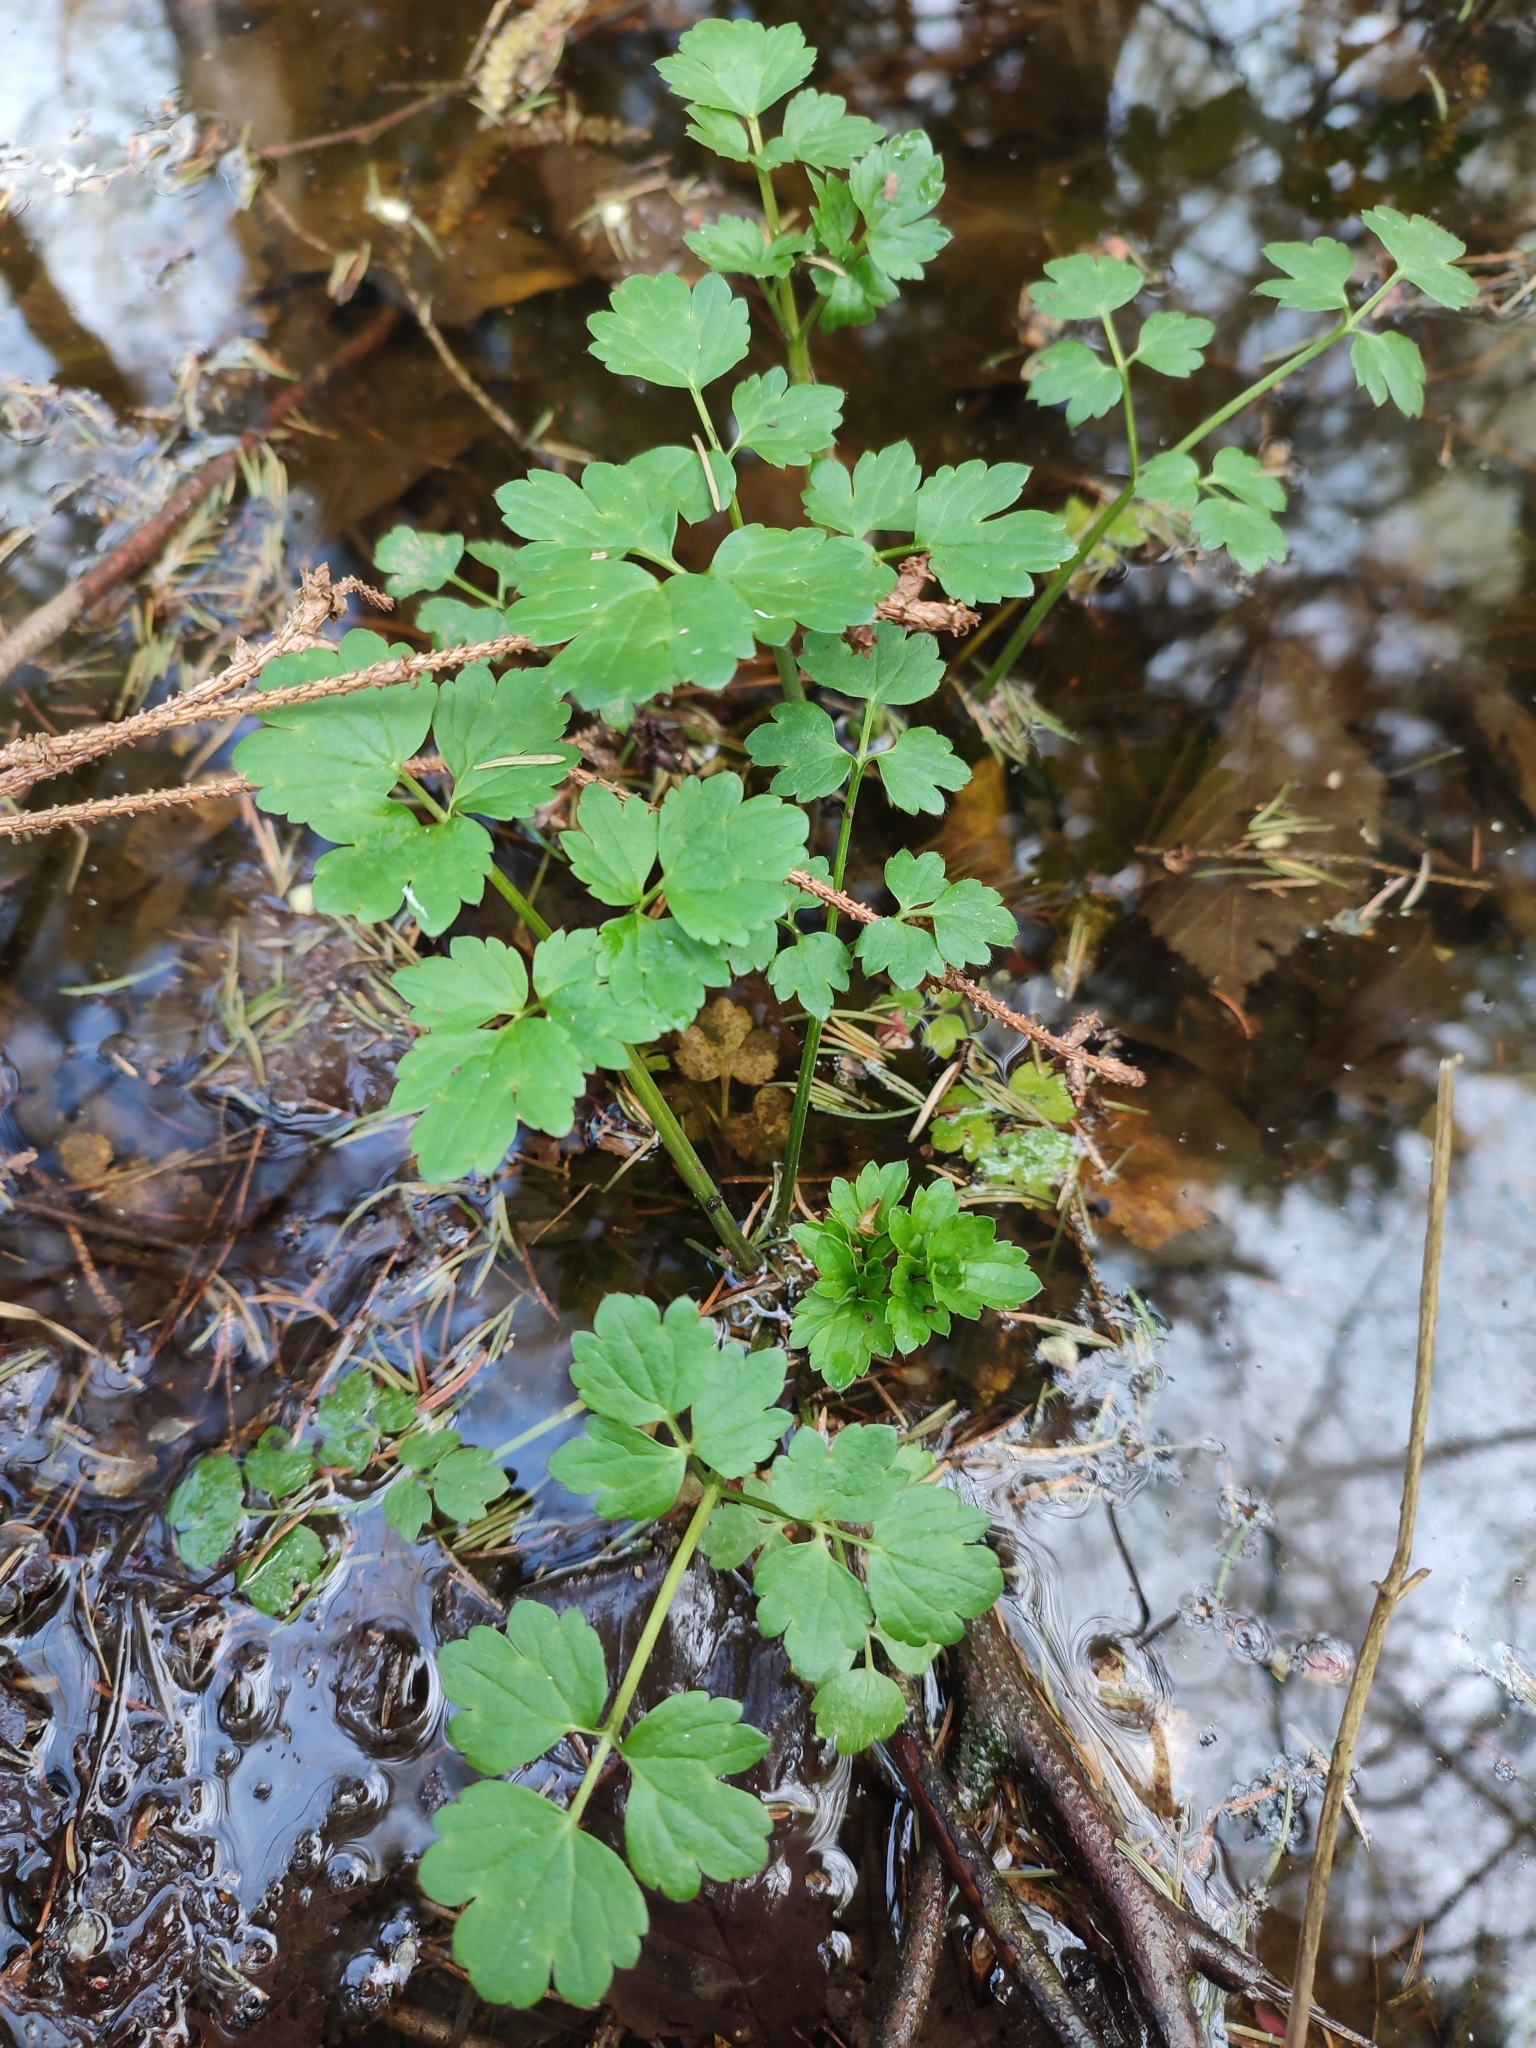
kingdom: Plantae
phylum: Tracheophyta
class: Magnoliopsida
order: Ranunculales
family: Ranunculaceae
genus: Ranunculus
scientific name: Ranunculus repens
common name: Creeping buttercup
